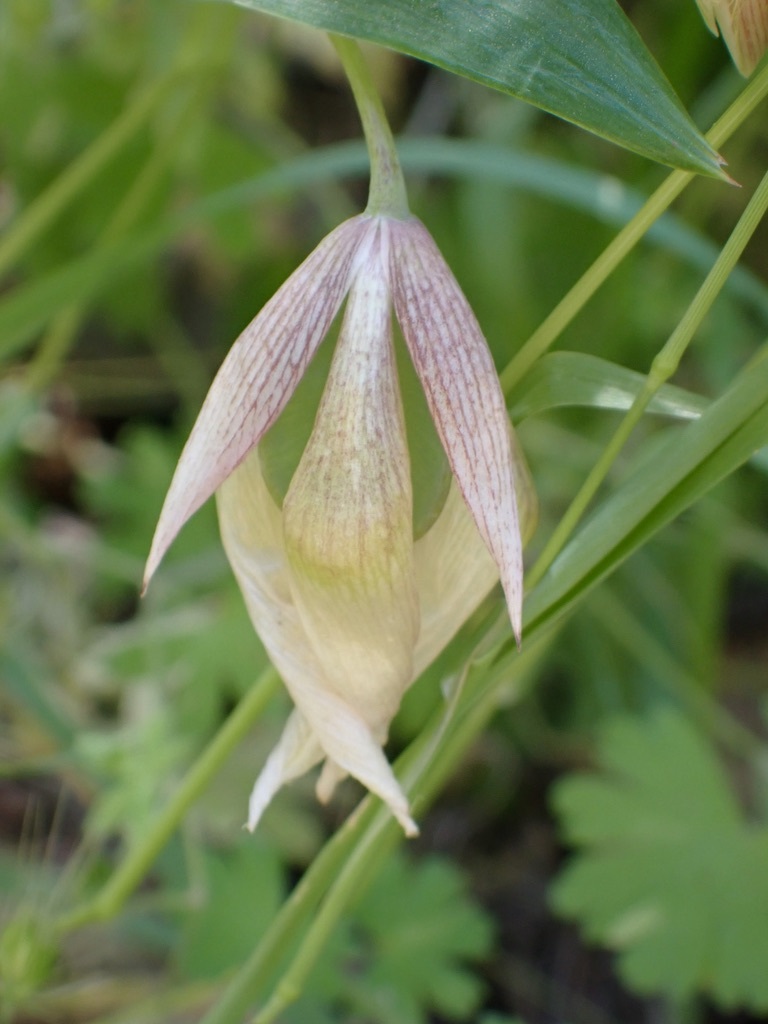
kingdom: Plantae
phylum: Tracheophyta
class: Liliopsida
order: Liliales
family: Liliaceae
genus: Calochortus
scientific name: Calochortus albus
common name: Fairy-lantern
